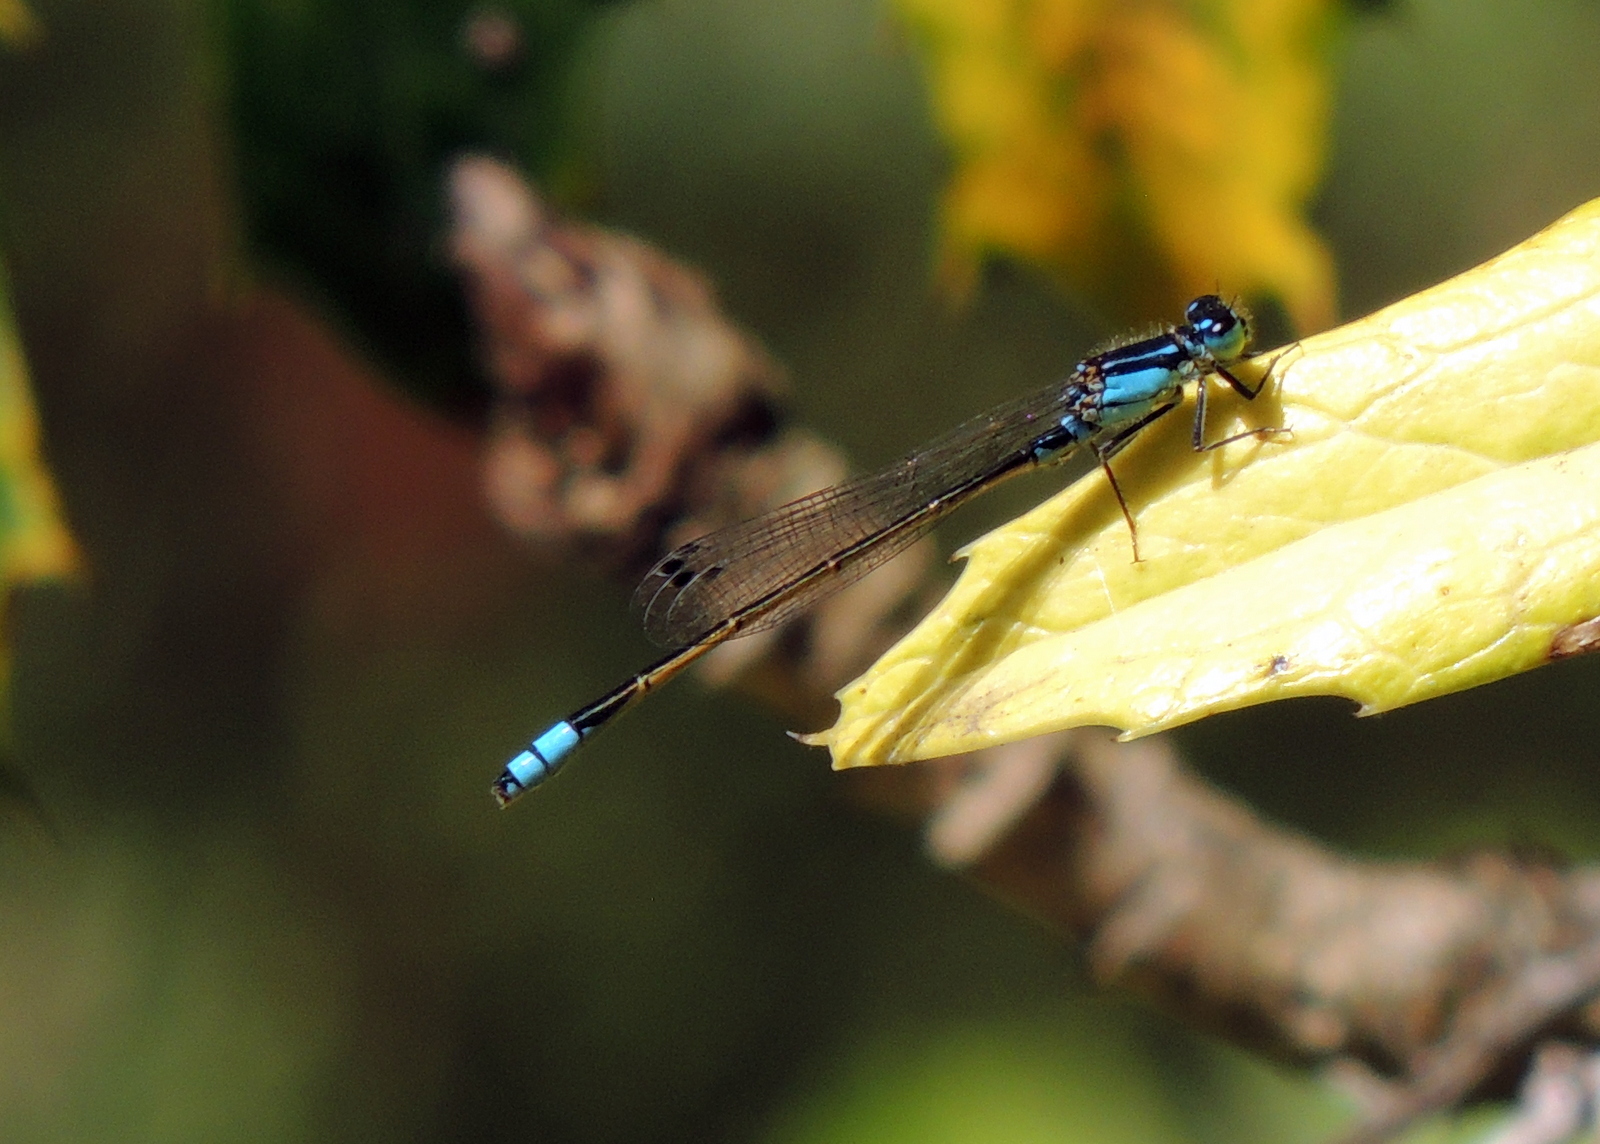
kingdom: Animalia
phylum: Arthropoda
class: Insecta
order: Odonata
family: Coenagrionidae
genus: Ischnura
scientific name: Ischnura heterosticta
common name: Common bluetail
